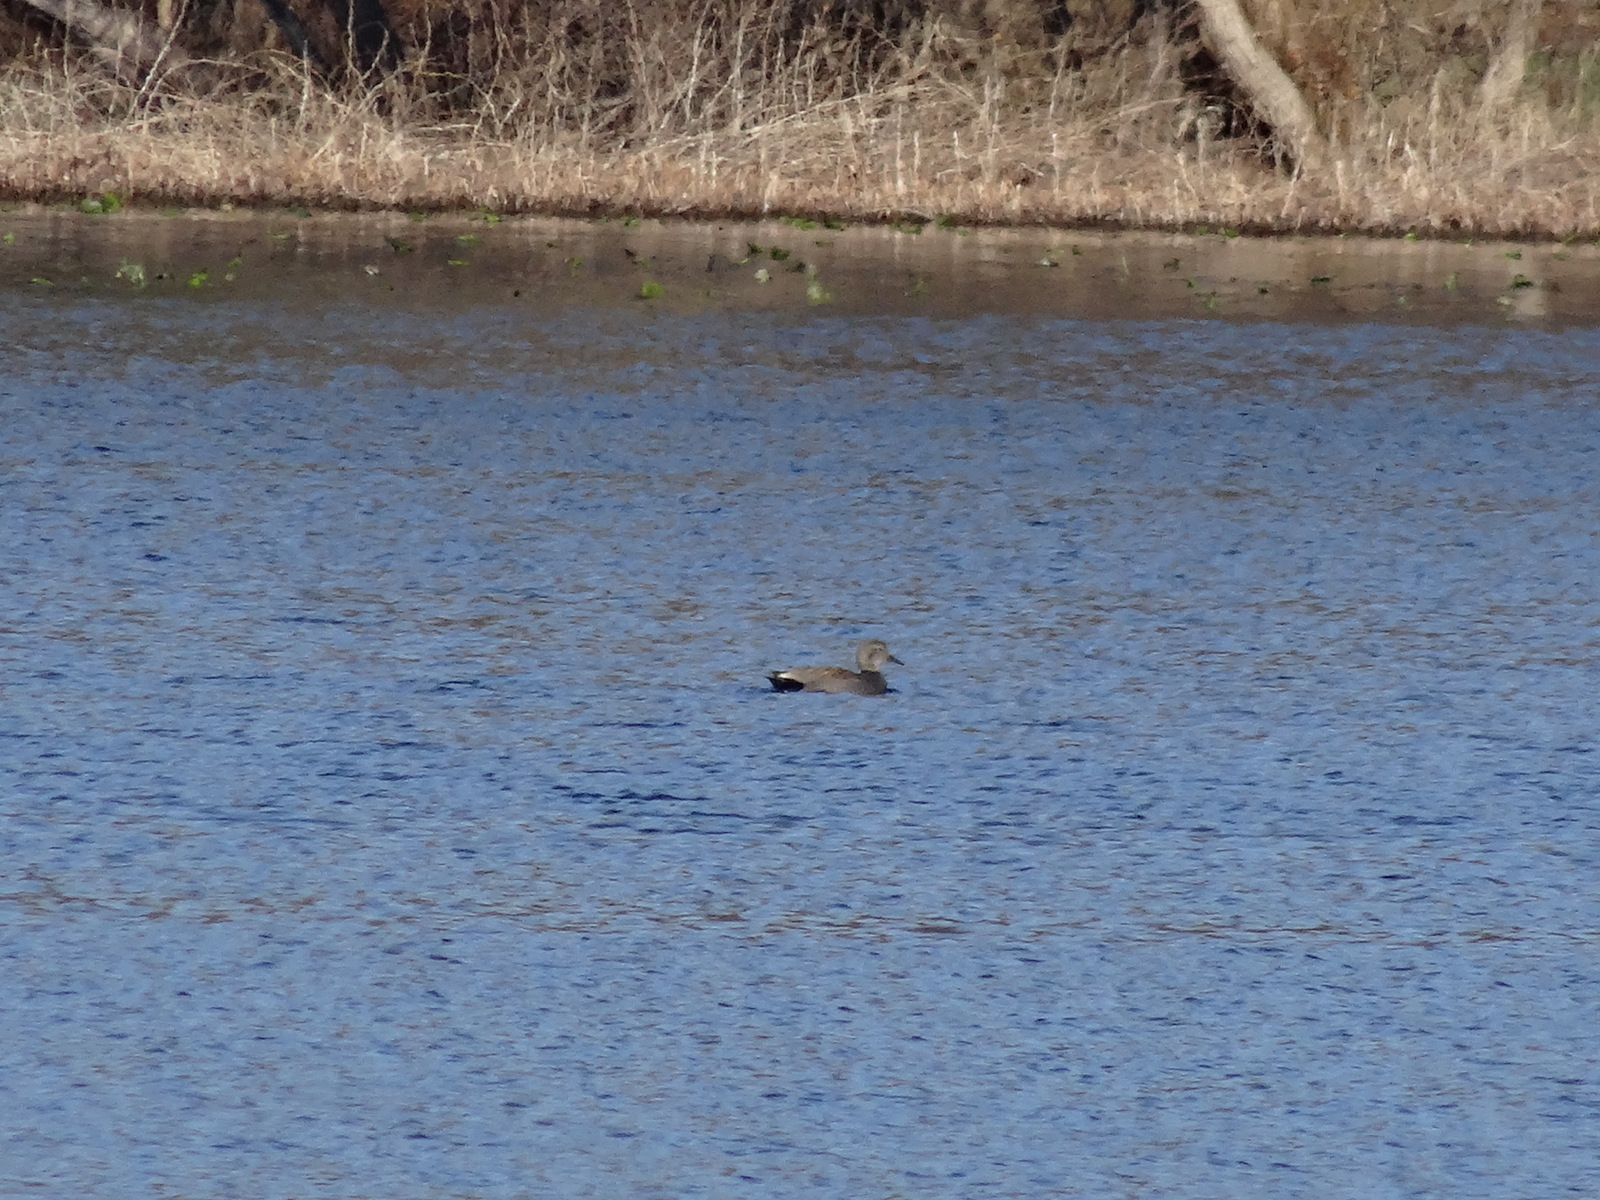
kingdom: Animalia
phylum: Chordata
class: Aves
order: Anseriformes
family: Anatidae
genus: Mareca
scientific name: Mareca strepera
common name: Gadwall
